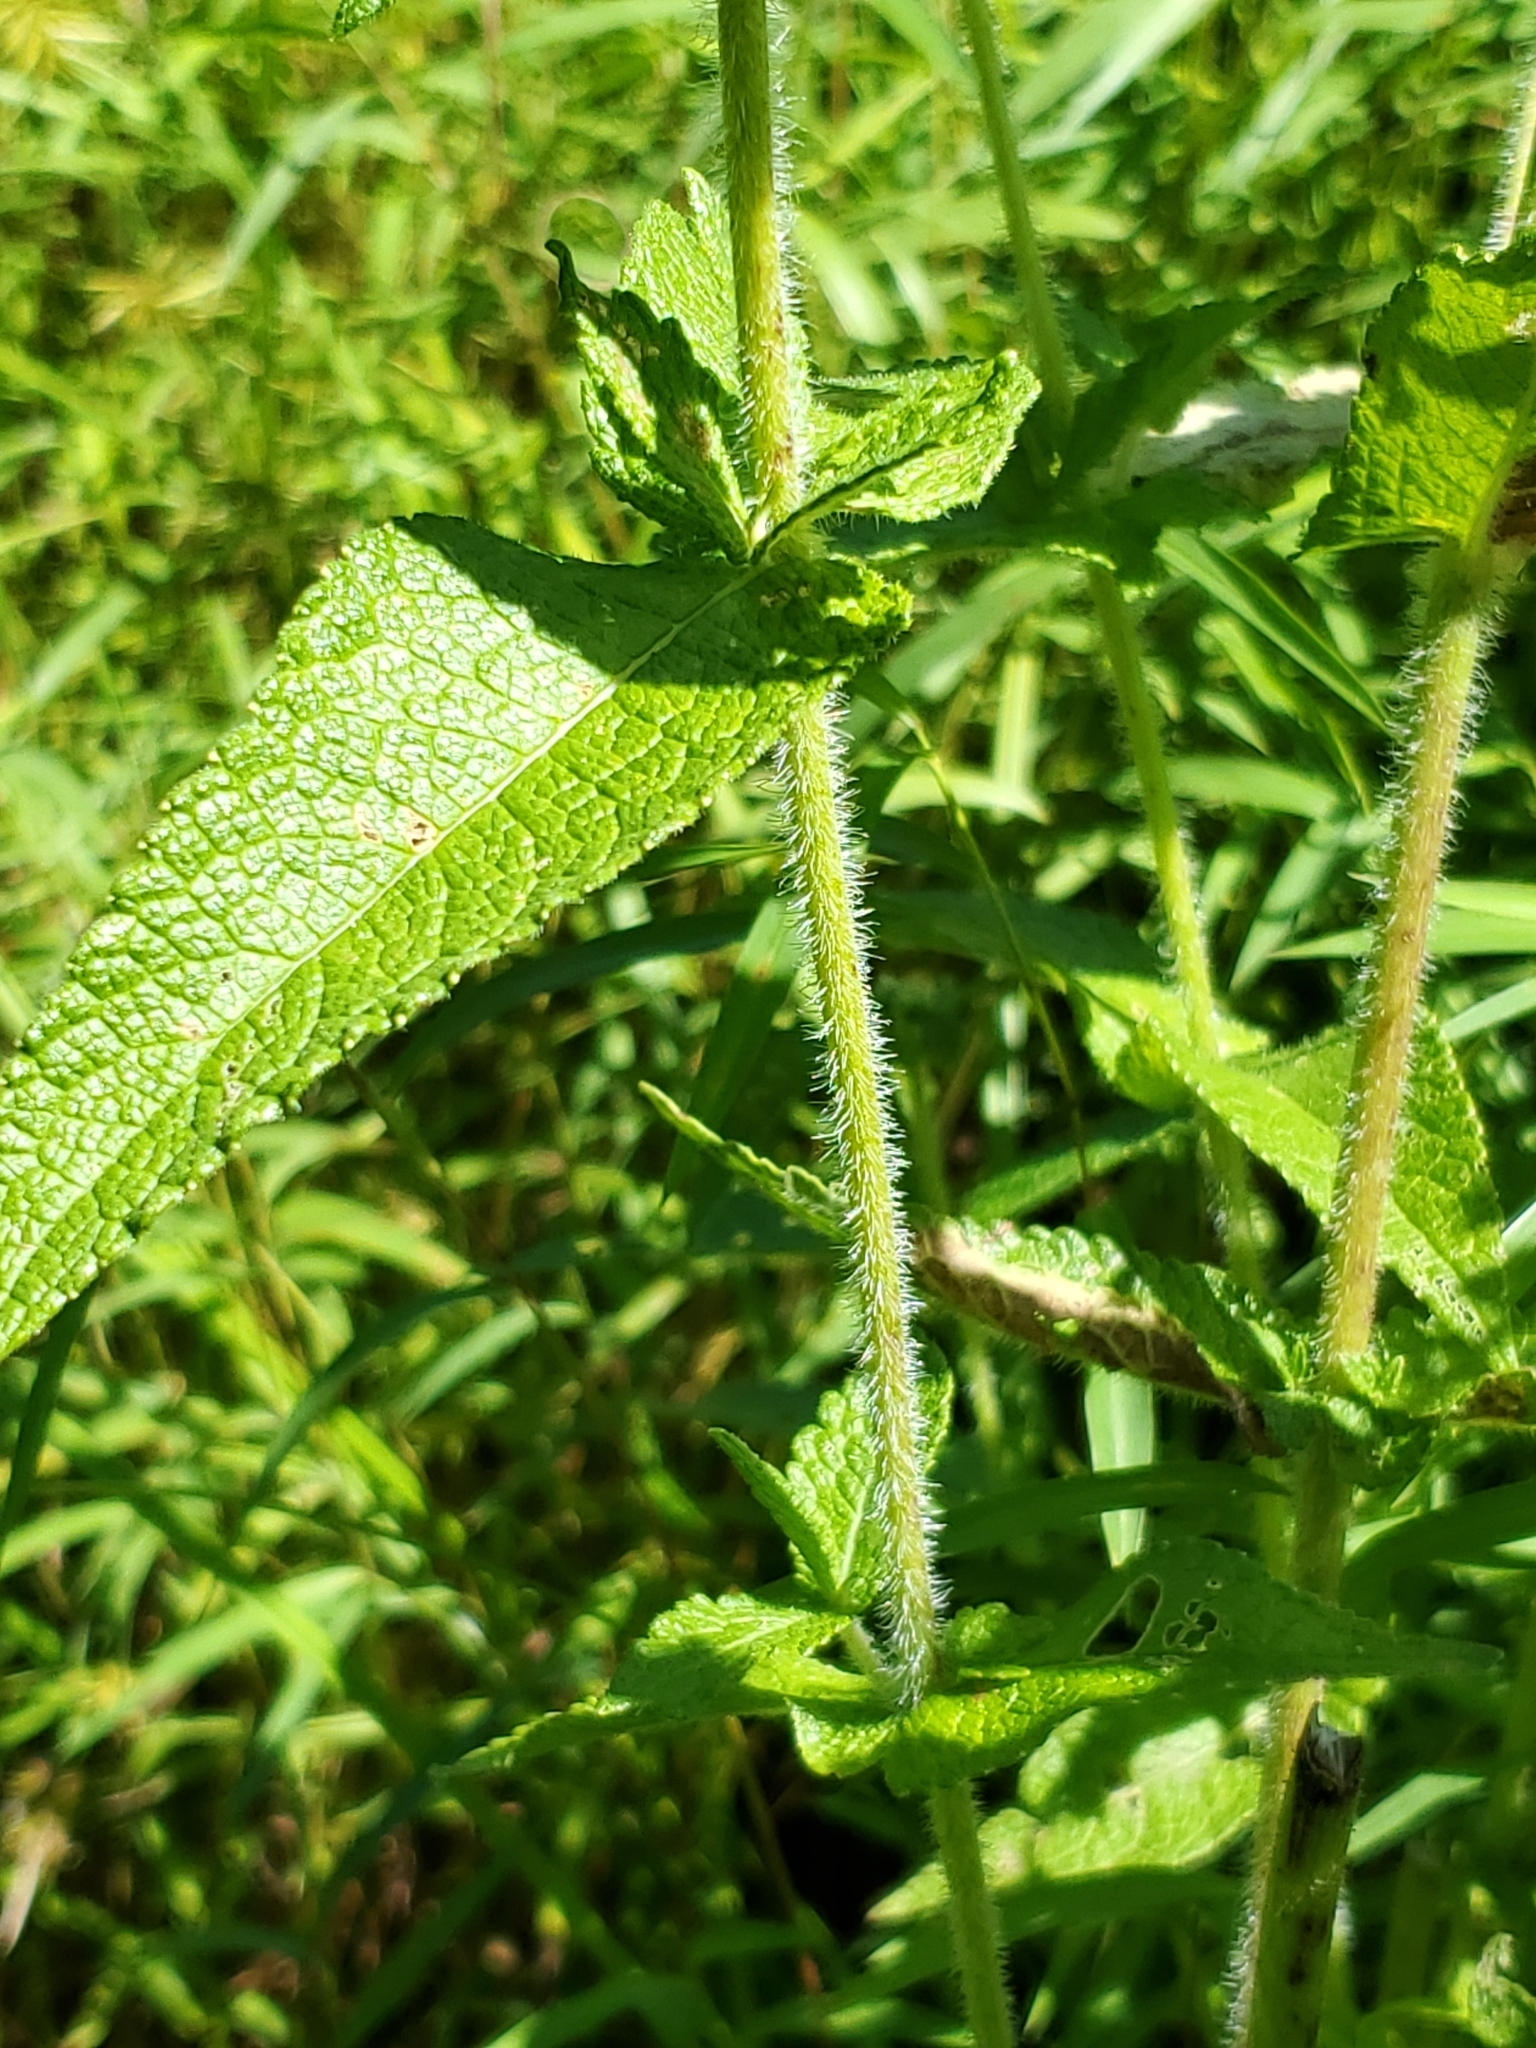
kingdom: Plantae
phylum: Tracheophyta
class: Magnoliopsida
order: Asterales
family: Asteraceae
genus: Eupatorium
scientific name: Eupatorium perfoliatum
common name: Boneset
